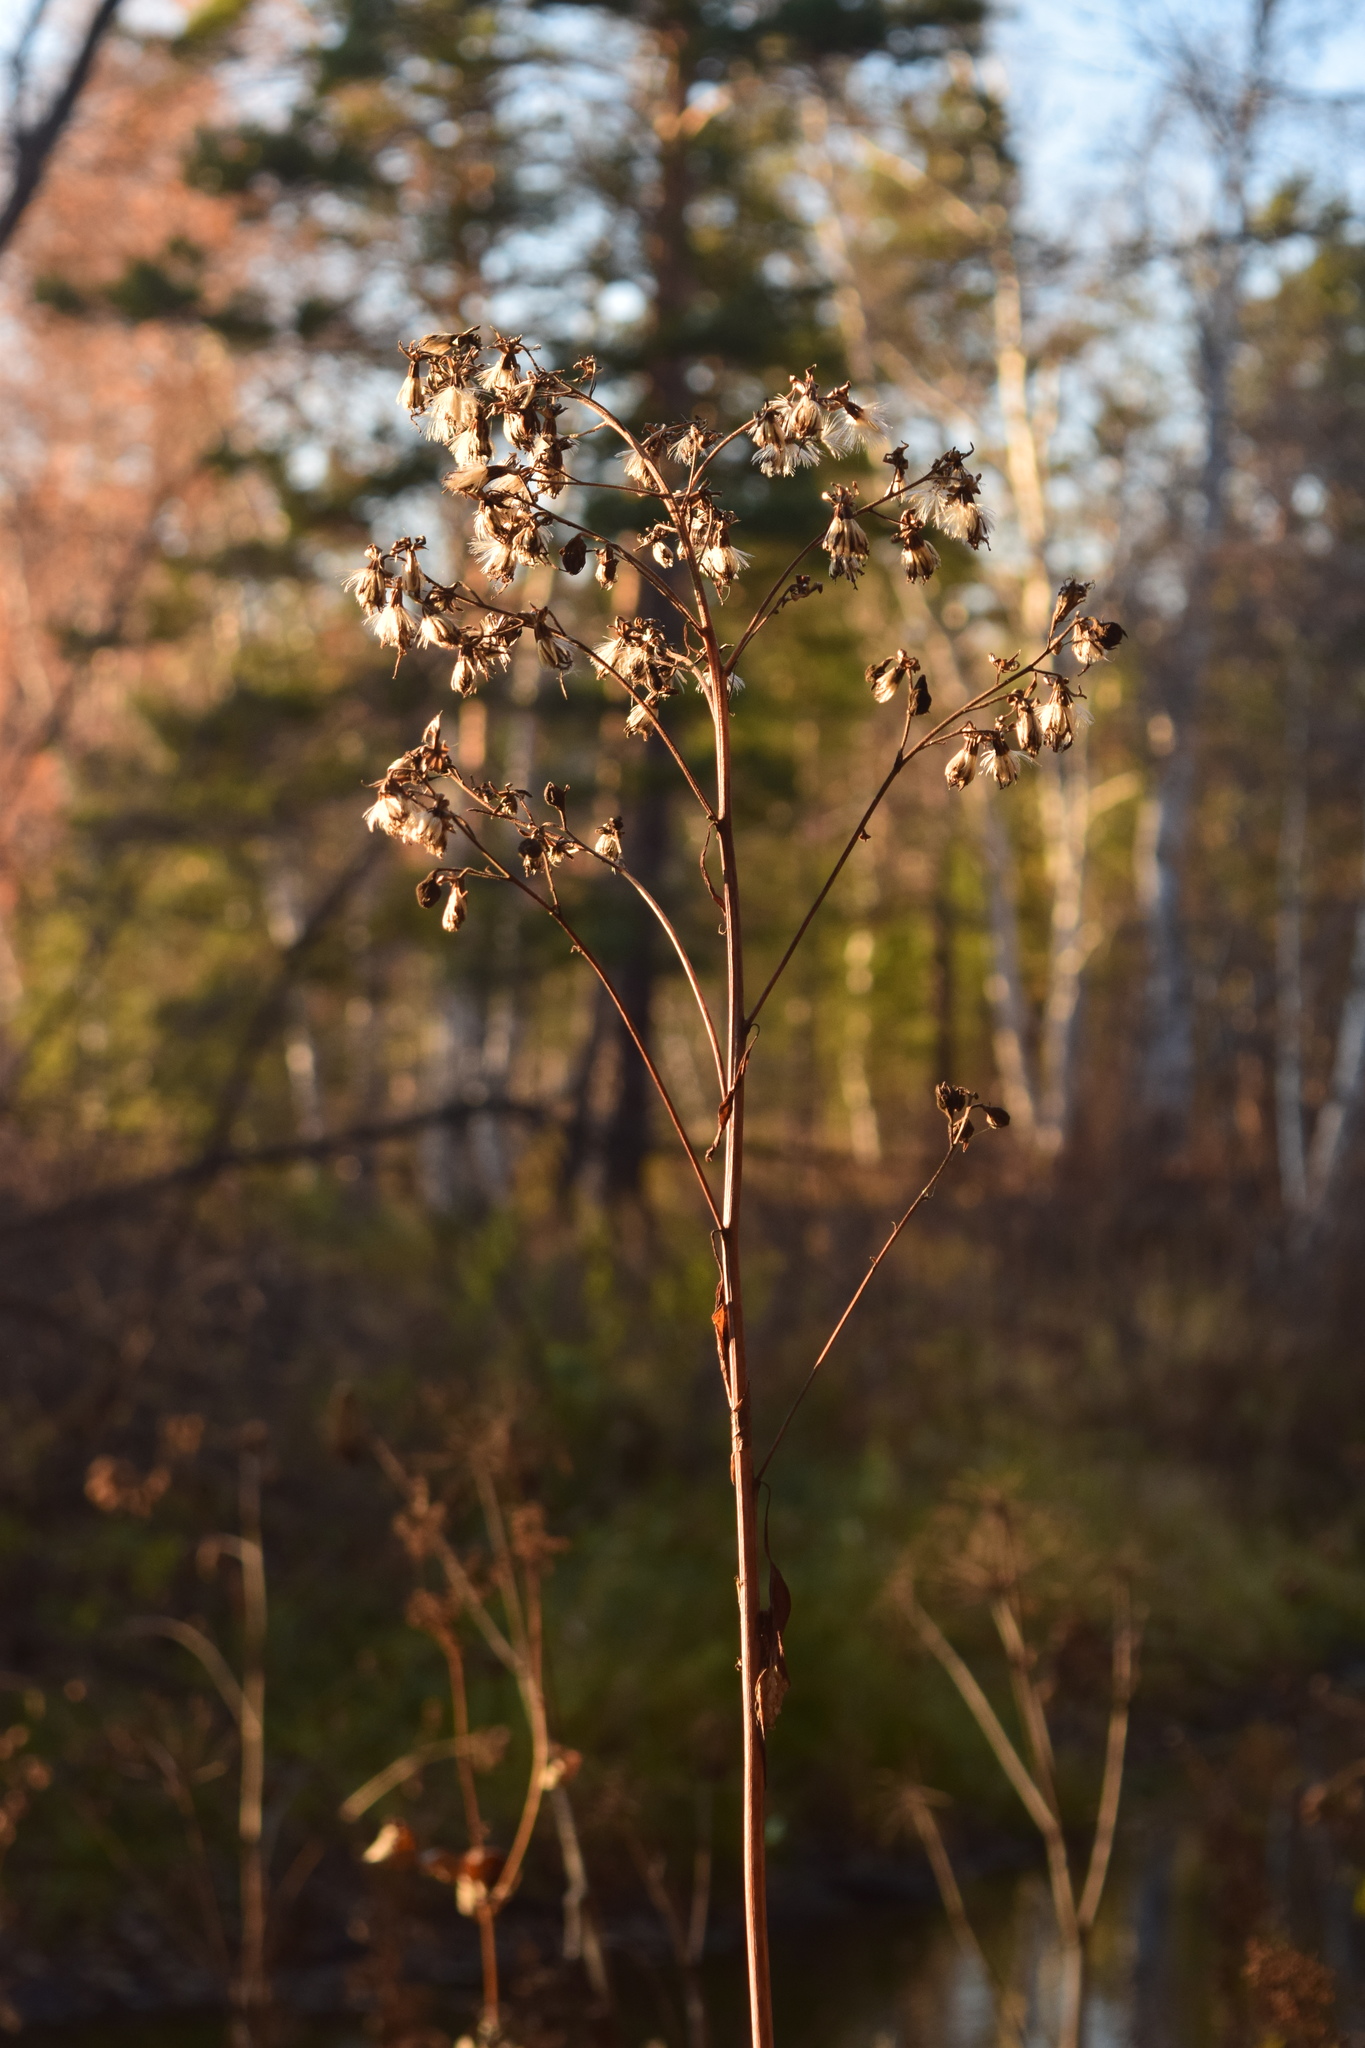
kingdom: Plantae
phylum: Tracheophyta
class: Magnoliopsida
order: Asterales
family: Asteraceae
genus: Parasenecio
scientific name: Parasenecio hastatus
